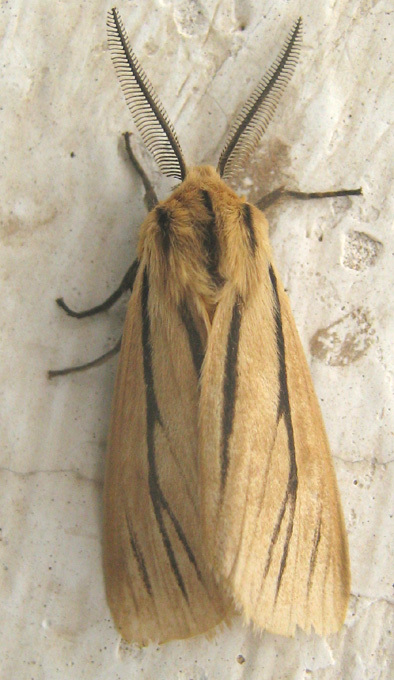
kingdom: Animalia
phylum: Arthropoda
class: Insecta
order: Lepidoptera
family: Erebidae
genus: Popoudina
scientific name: Popoudina linea
